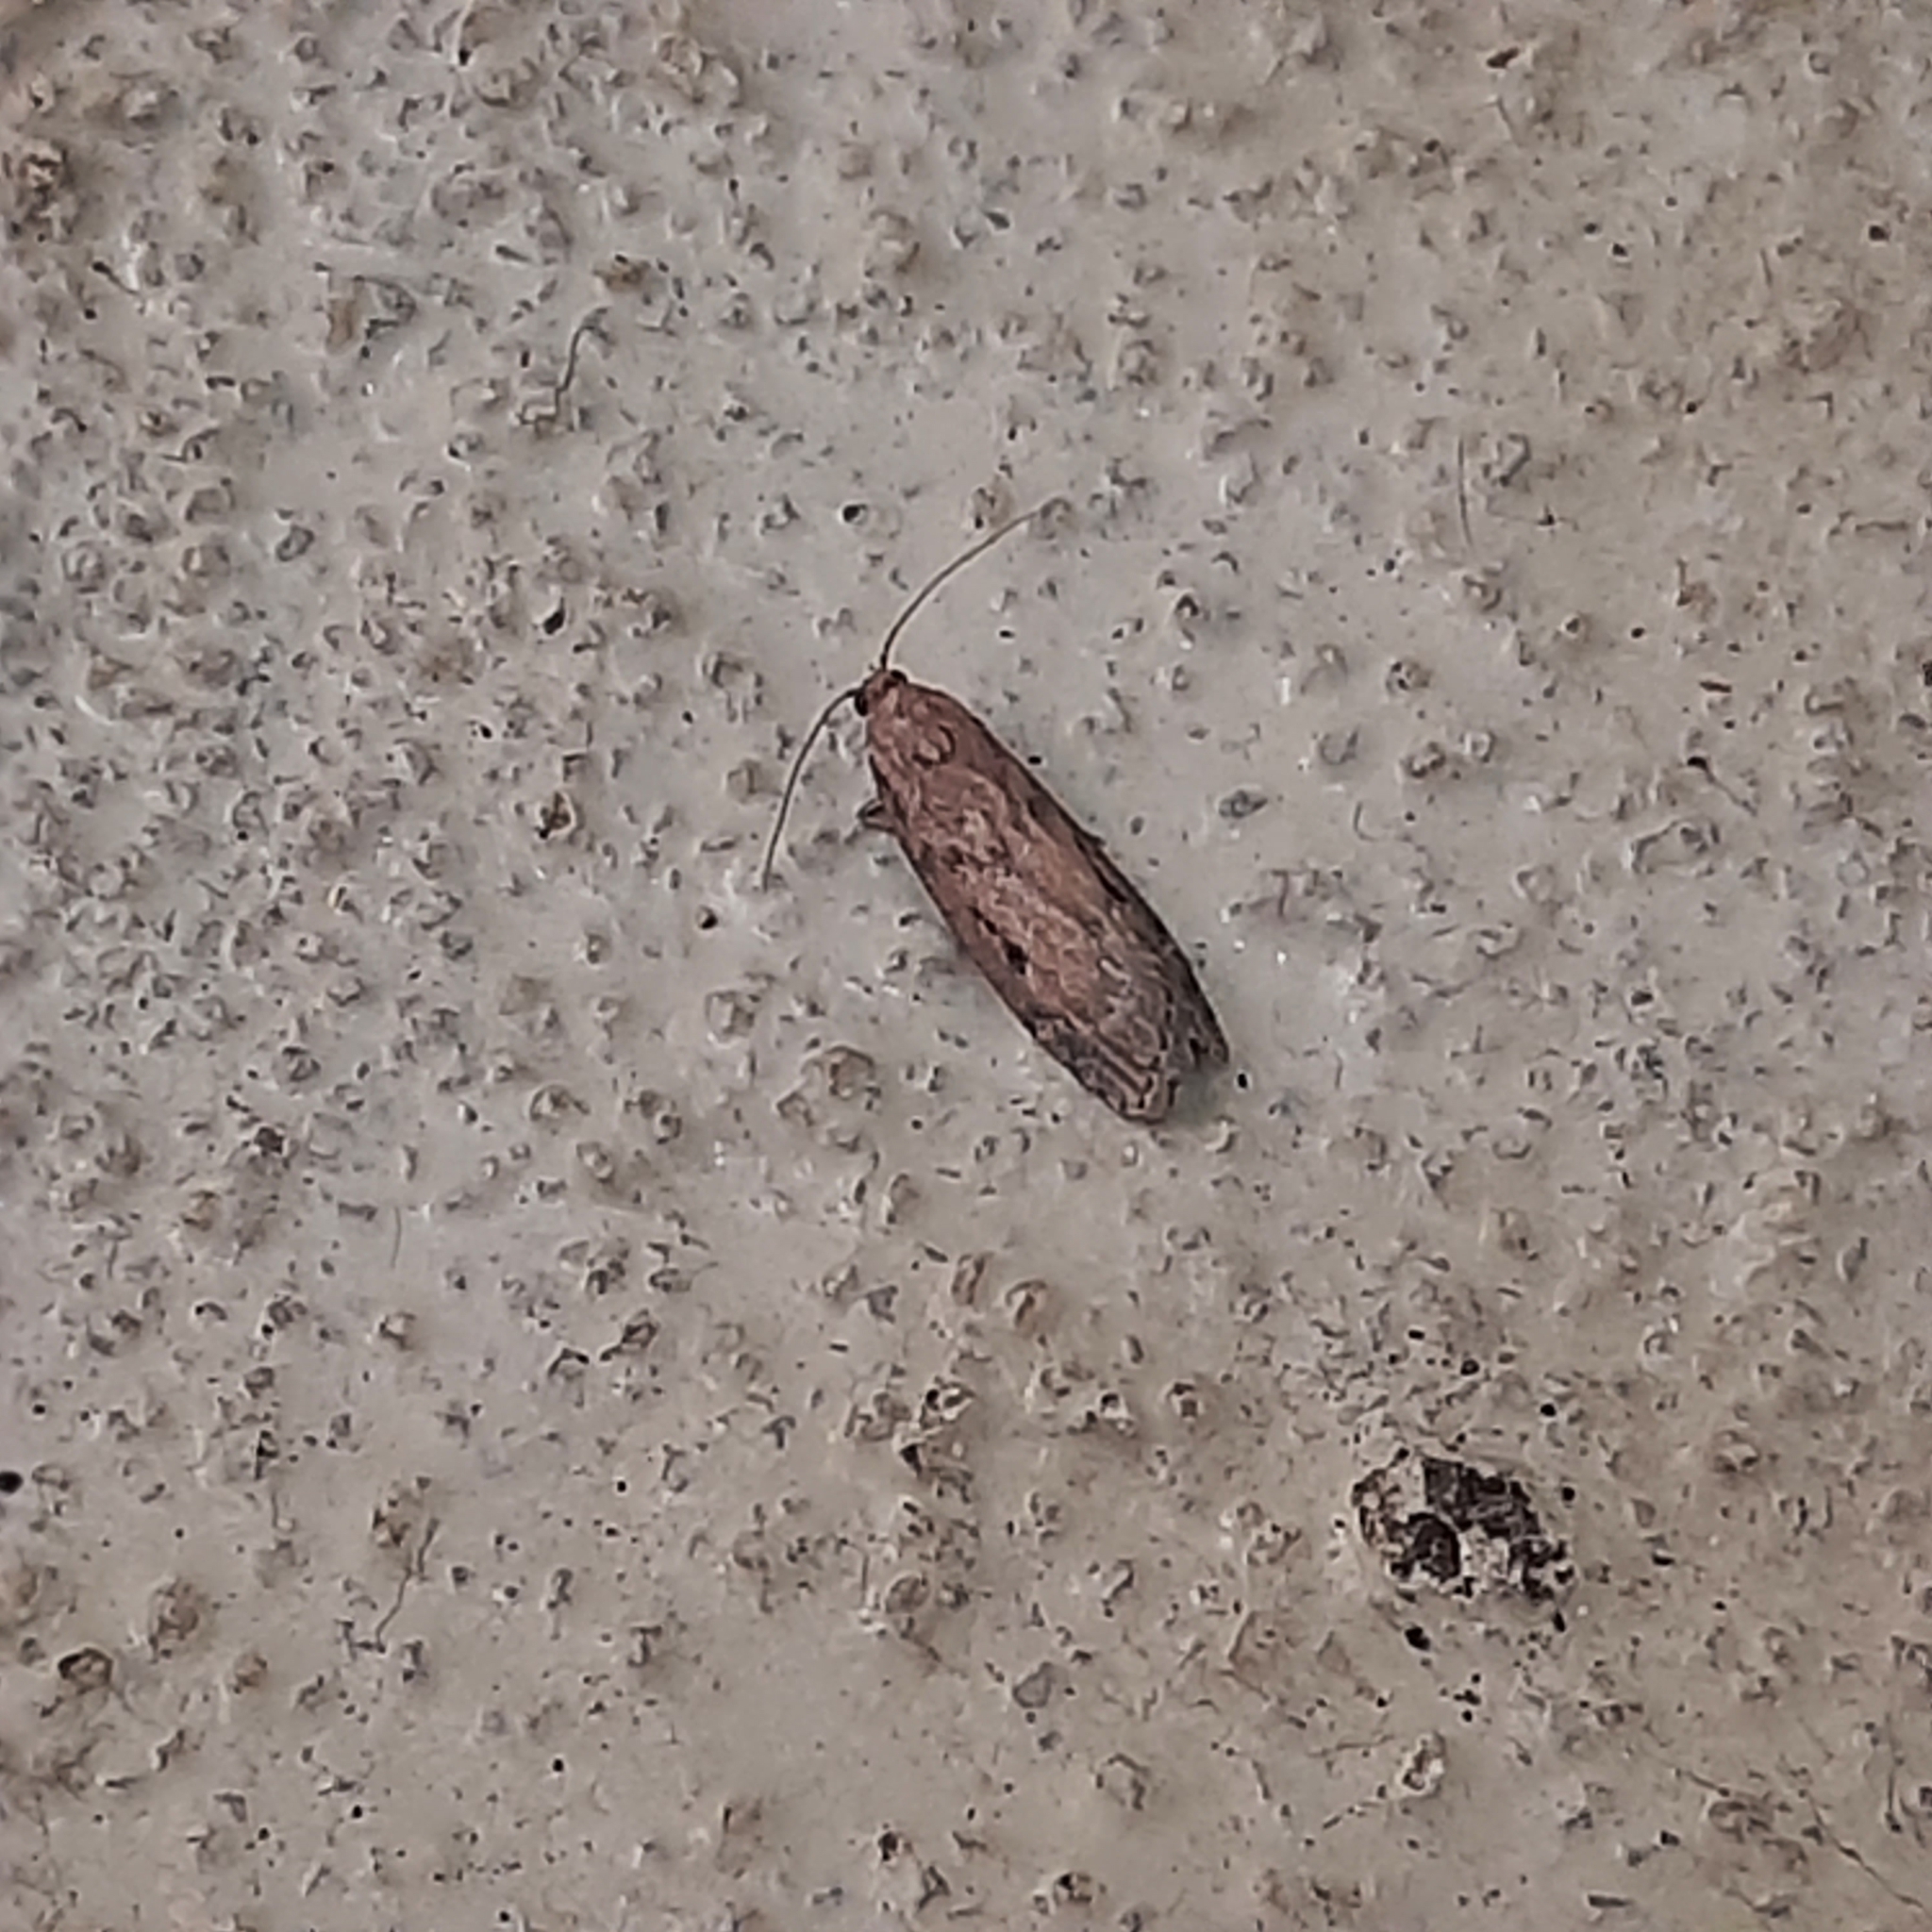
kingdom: Animalia
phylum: Arthropoda
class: Insecta
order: Lepidoptera
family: Pyralidae
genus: Aphomia
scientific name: Aphomia sociella
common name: Bee moth
